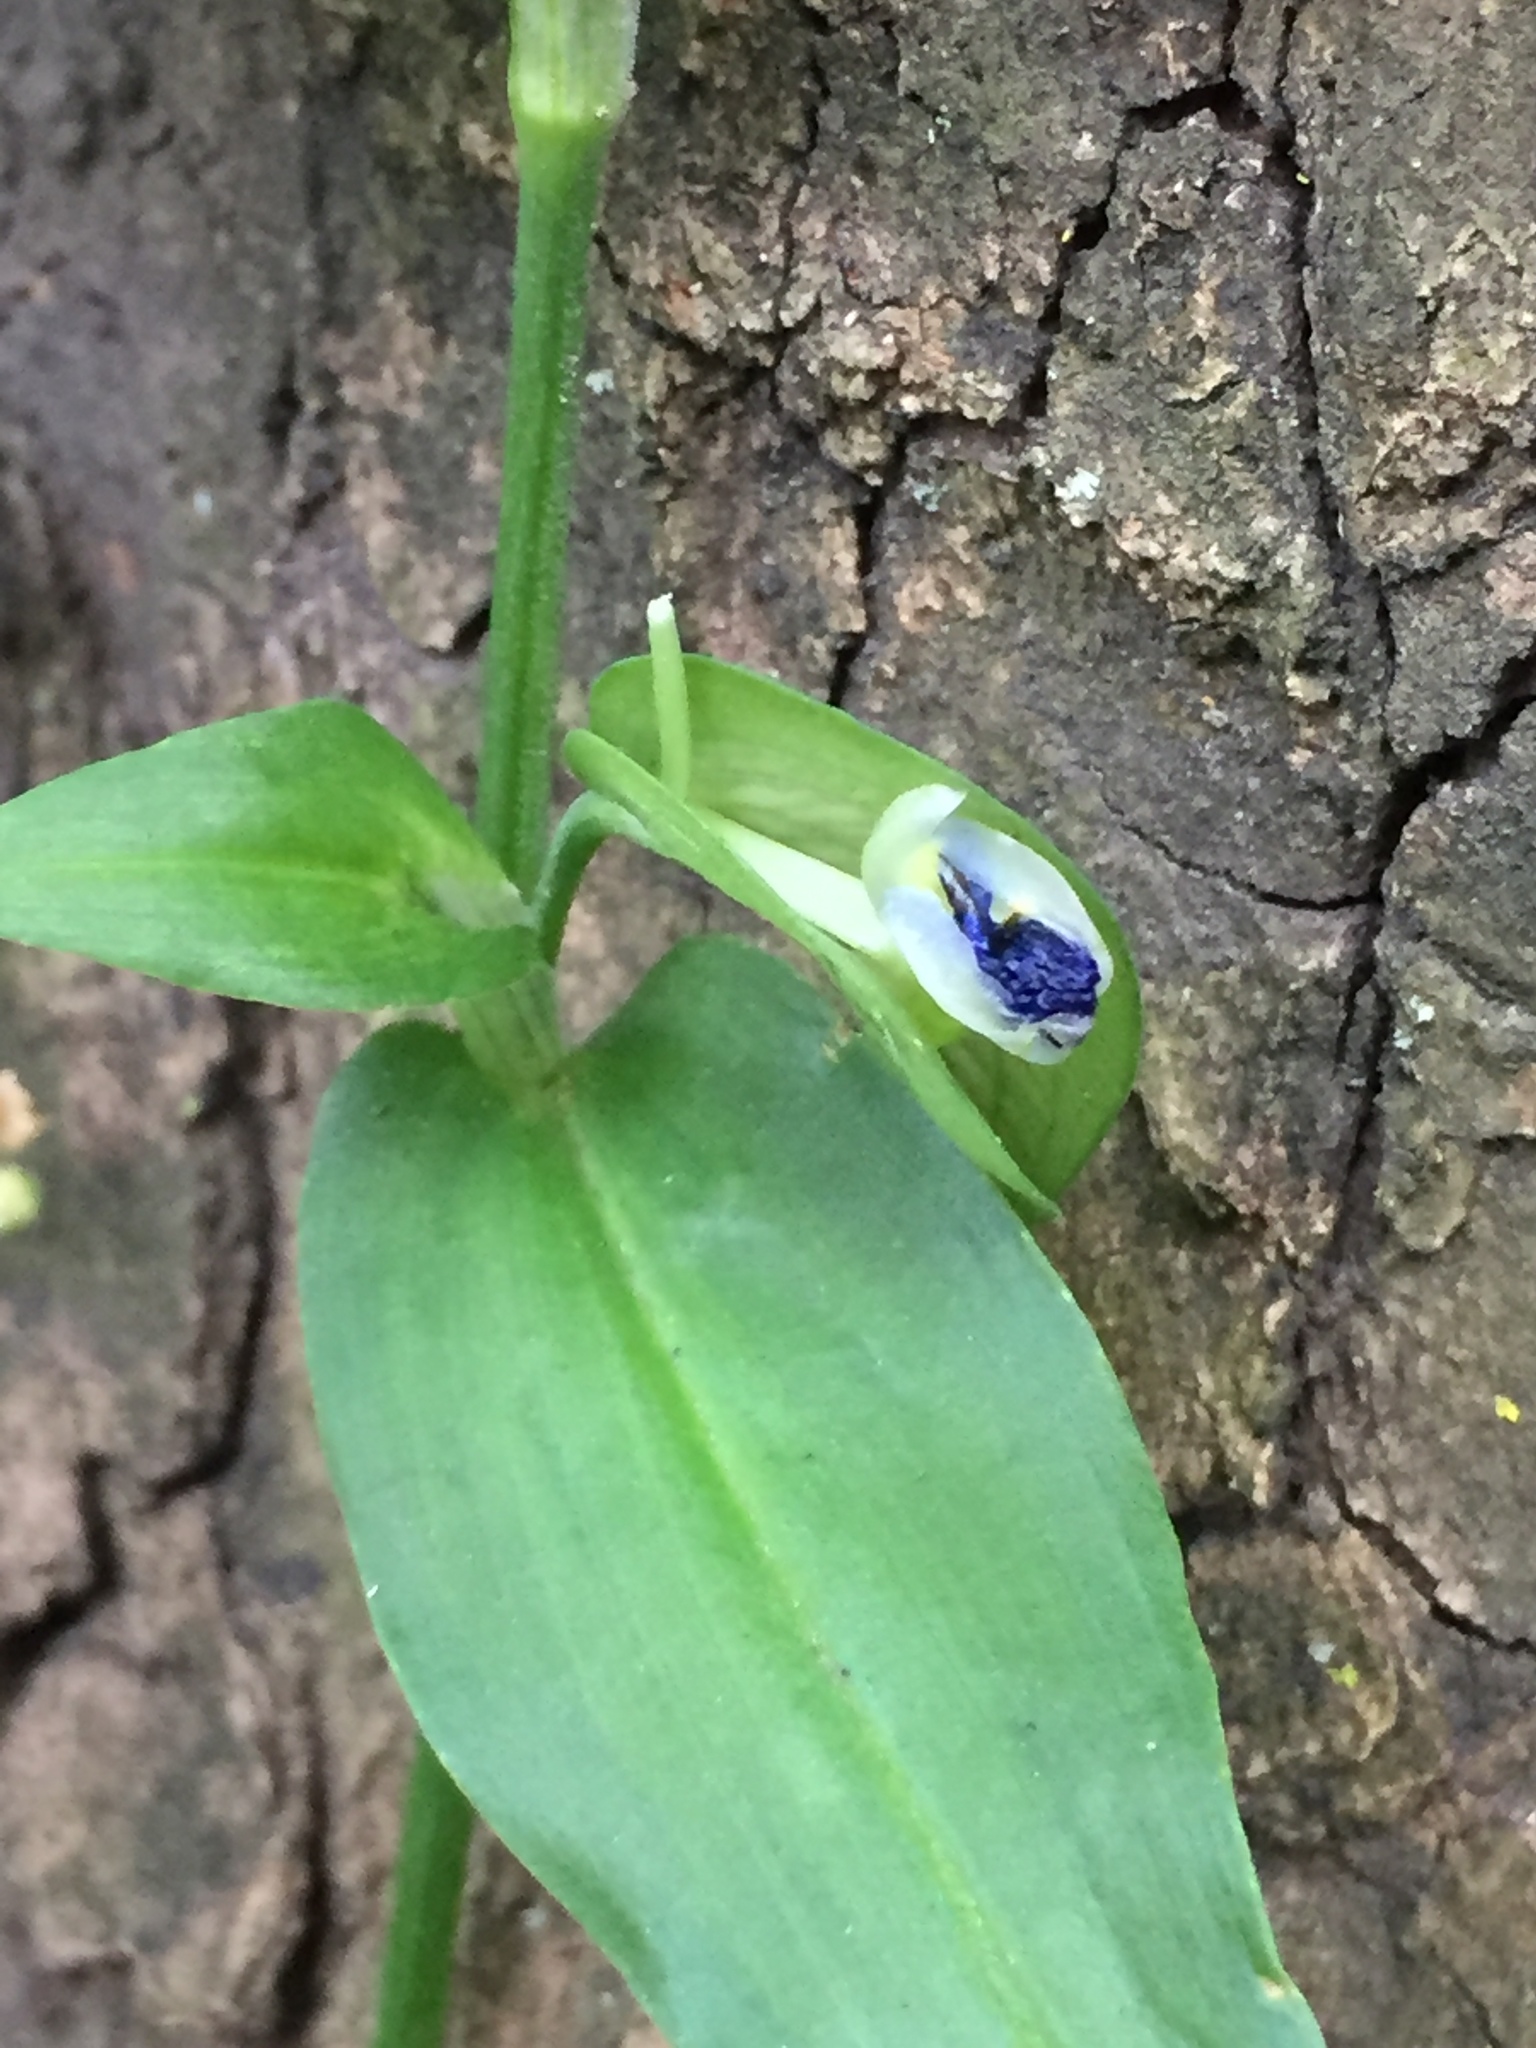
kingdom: Plantae
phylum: Tracheophyta
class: Liliopsida
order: Commelinales
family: Commelinaceae
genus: Commelina
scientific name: Commelina communis
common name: Asiatic dayflower
